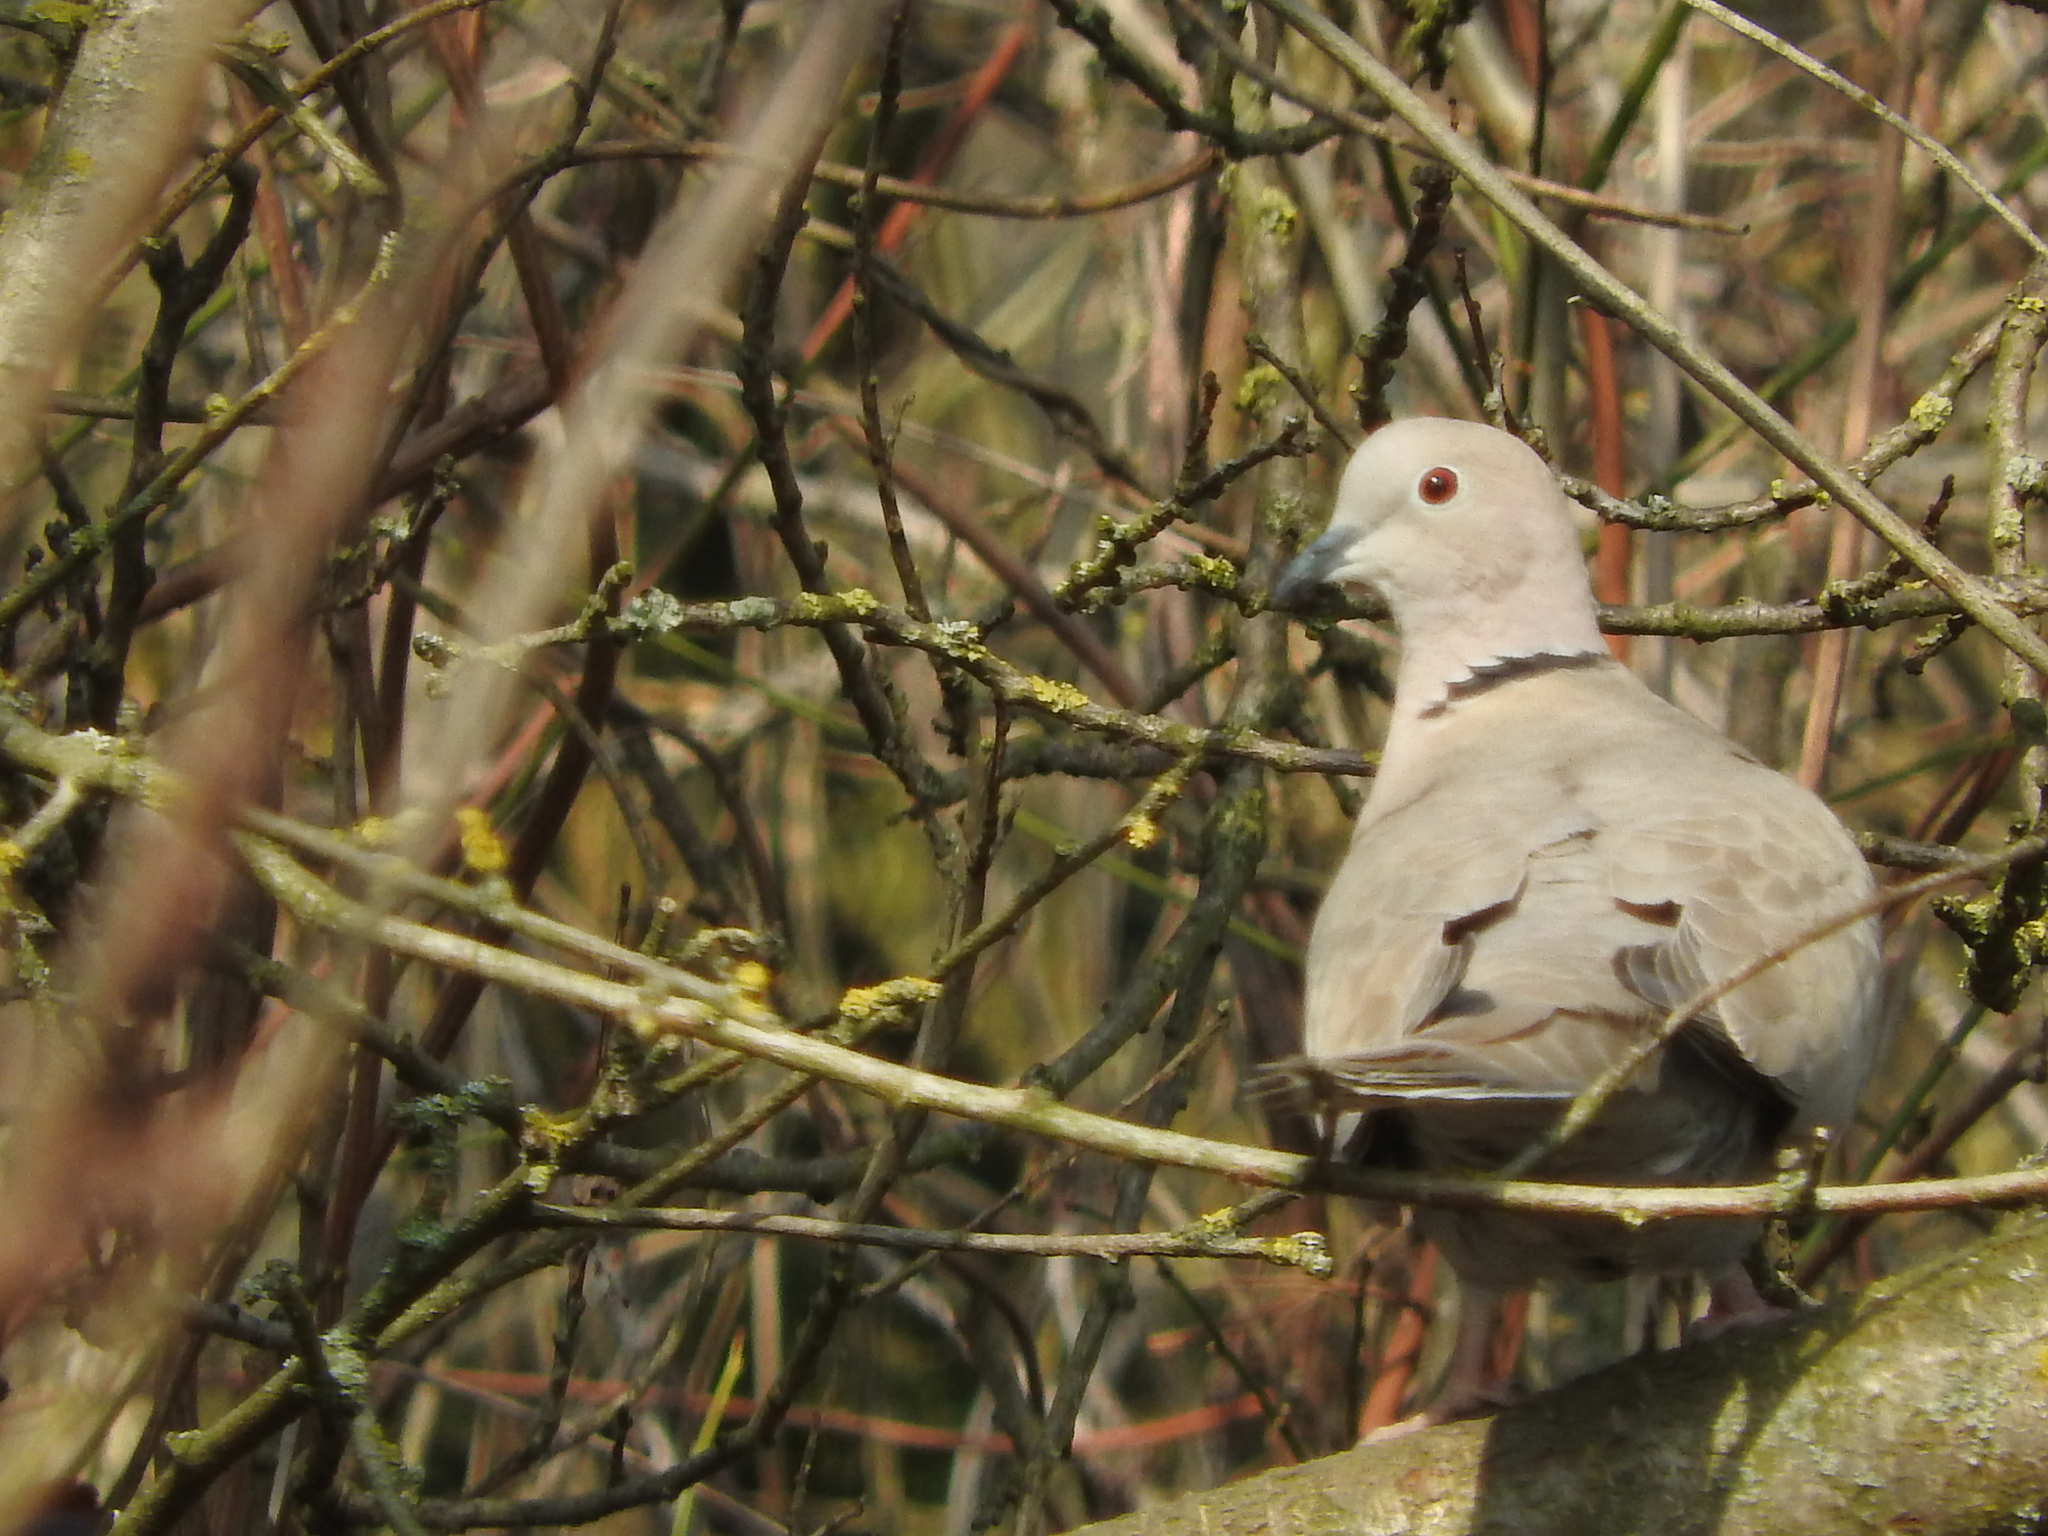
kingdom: Animalia
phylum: Chordata
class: Aves
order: Columbiformes
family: Columbidae
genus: Streptopelia
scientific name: Streptopelia decaocto
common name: Eurasian collared dove
